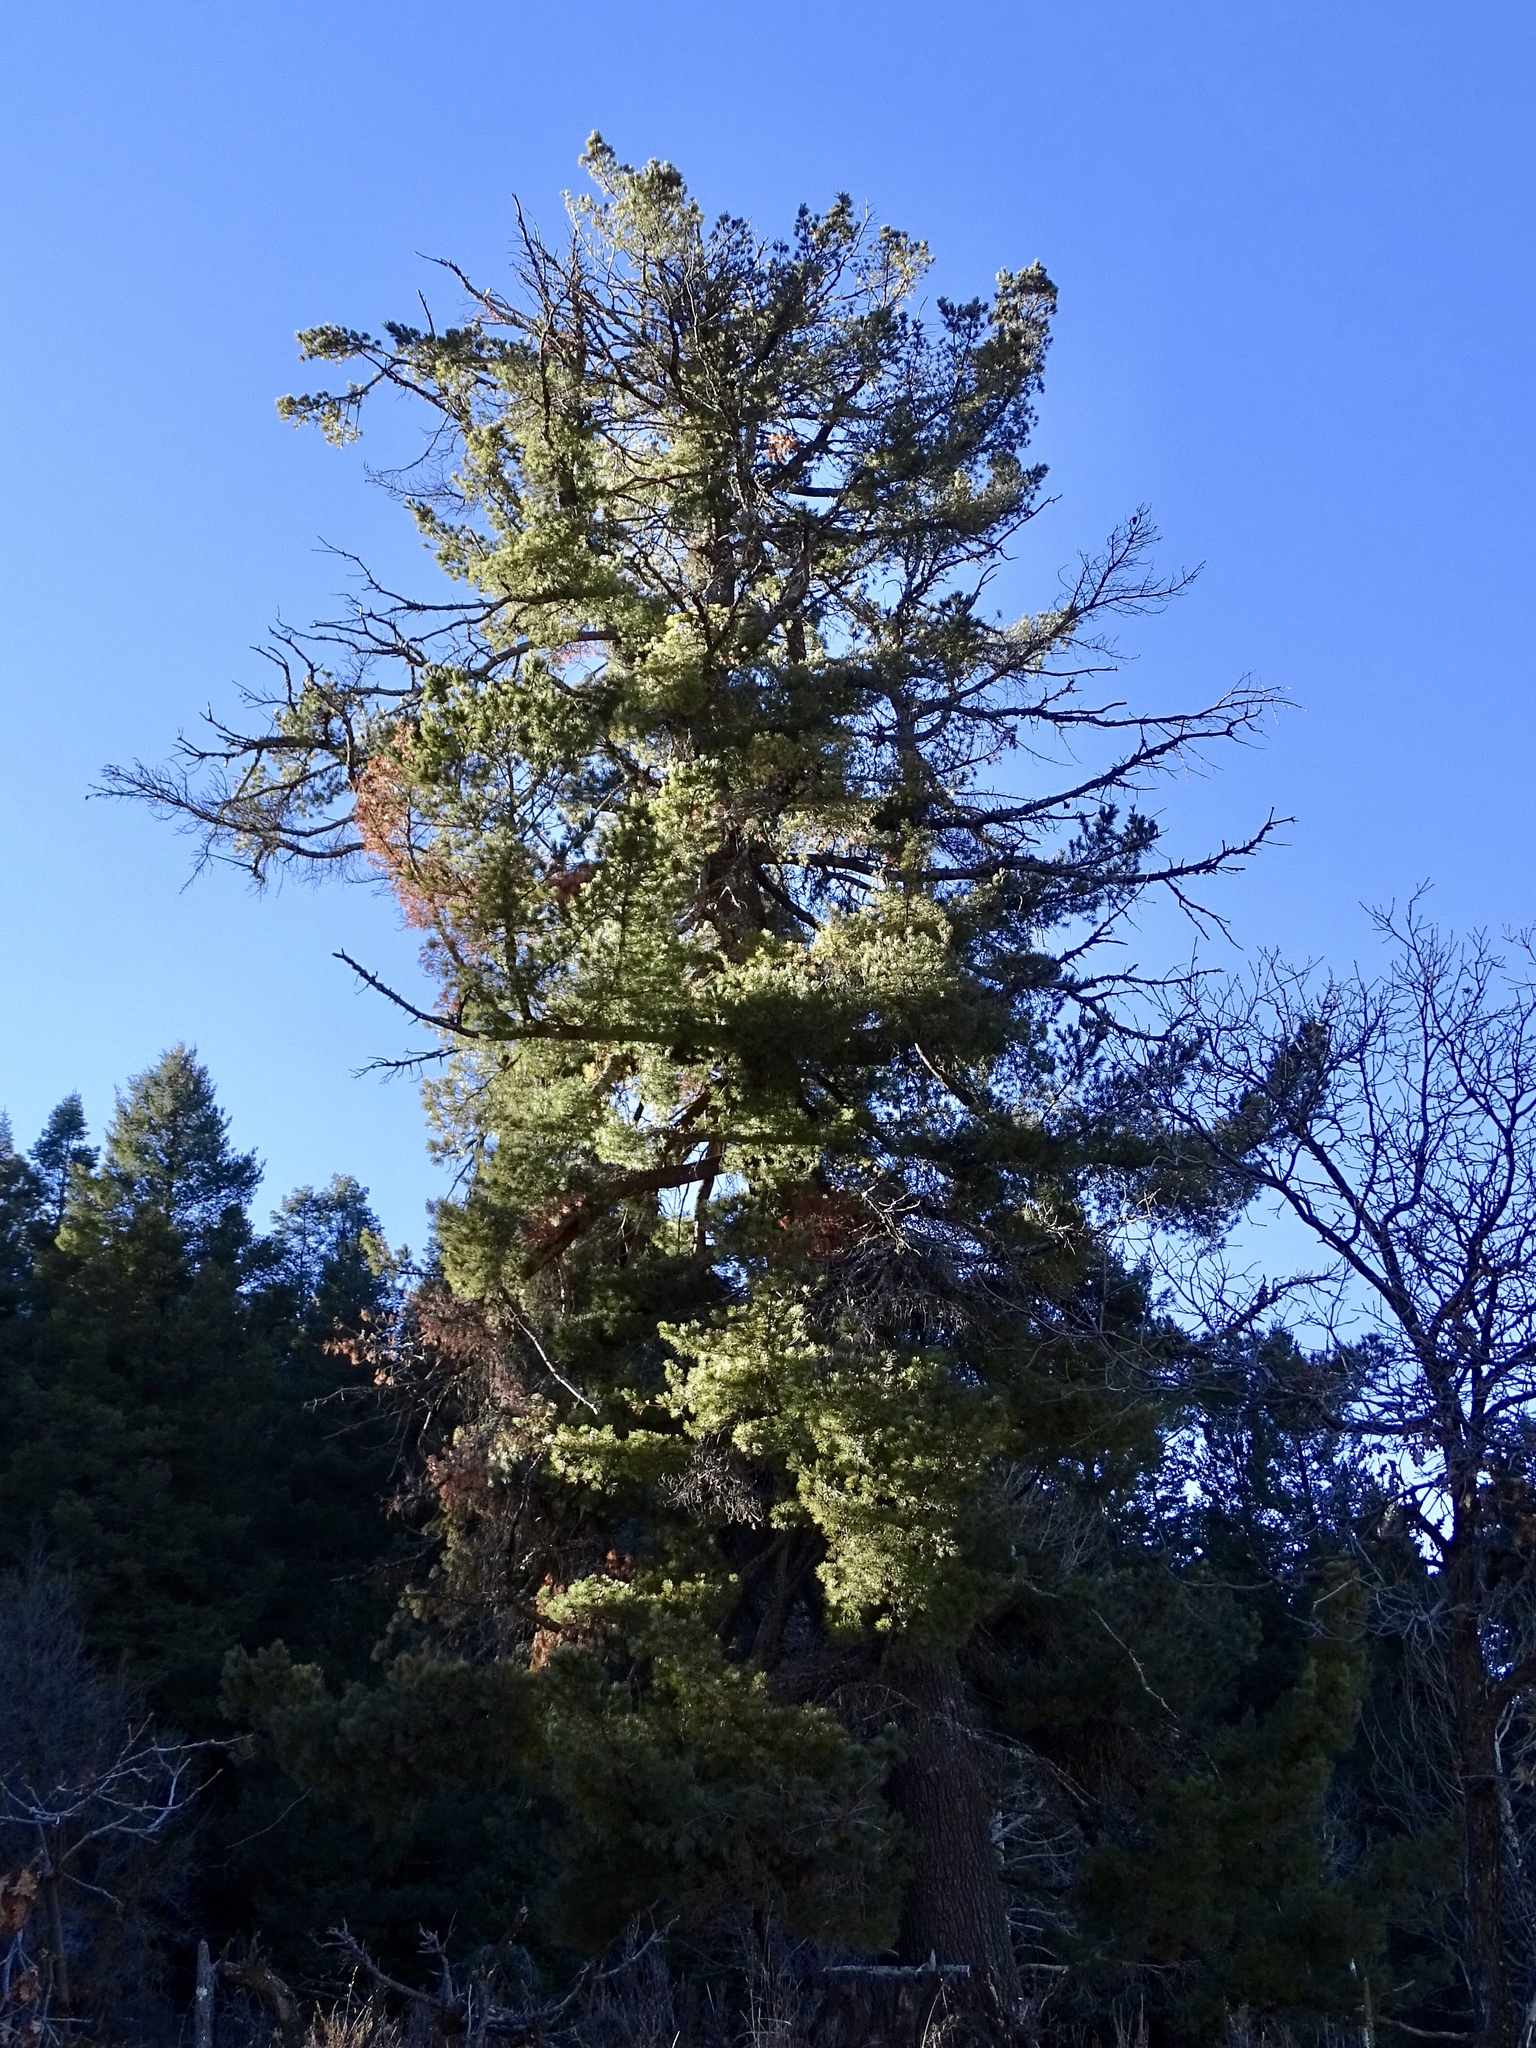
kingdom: Plantae
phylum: Tracheophyta
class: Pinopsida
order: Pinales
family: Pinaceae
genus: Pinus
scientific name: Pinus strobiformis
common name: Southwestern white pine
